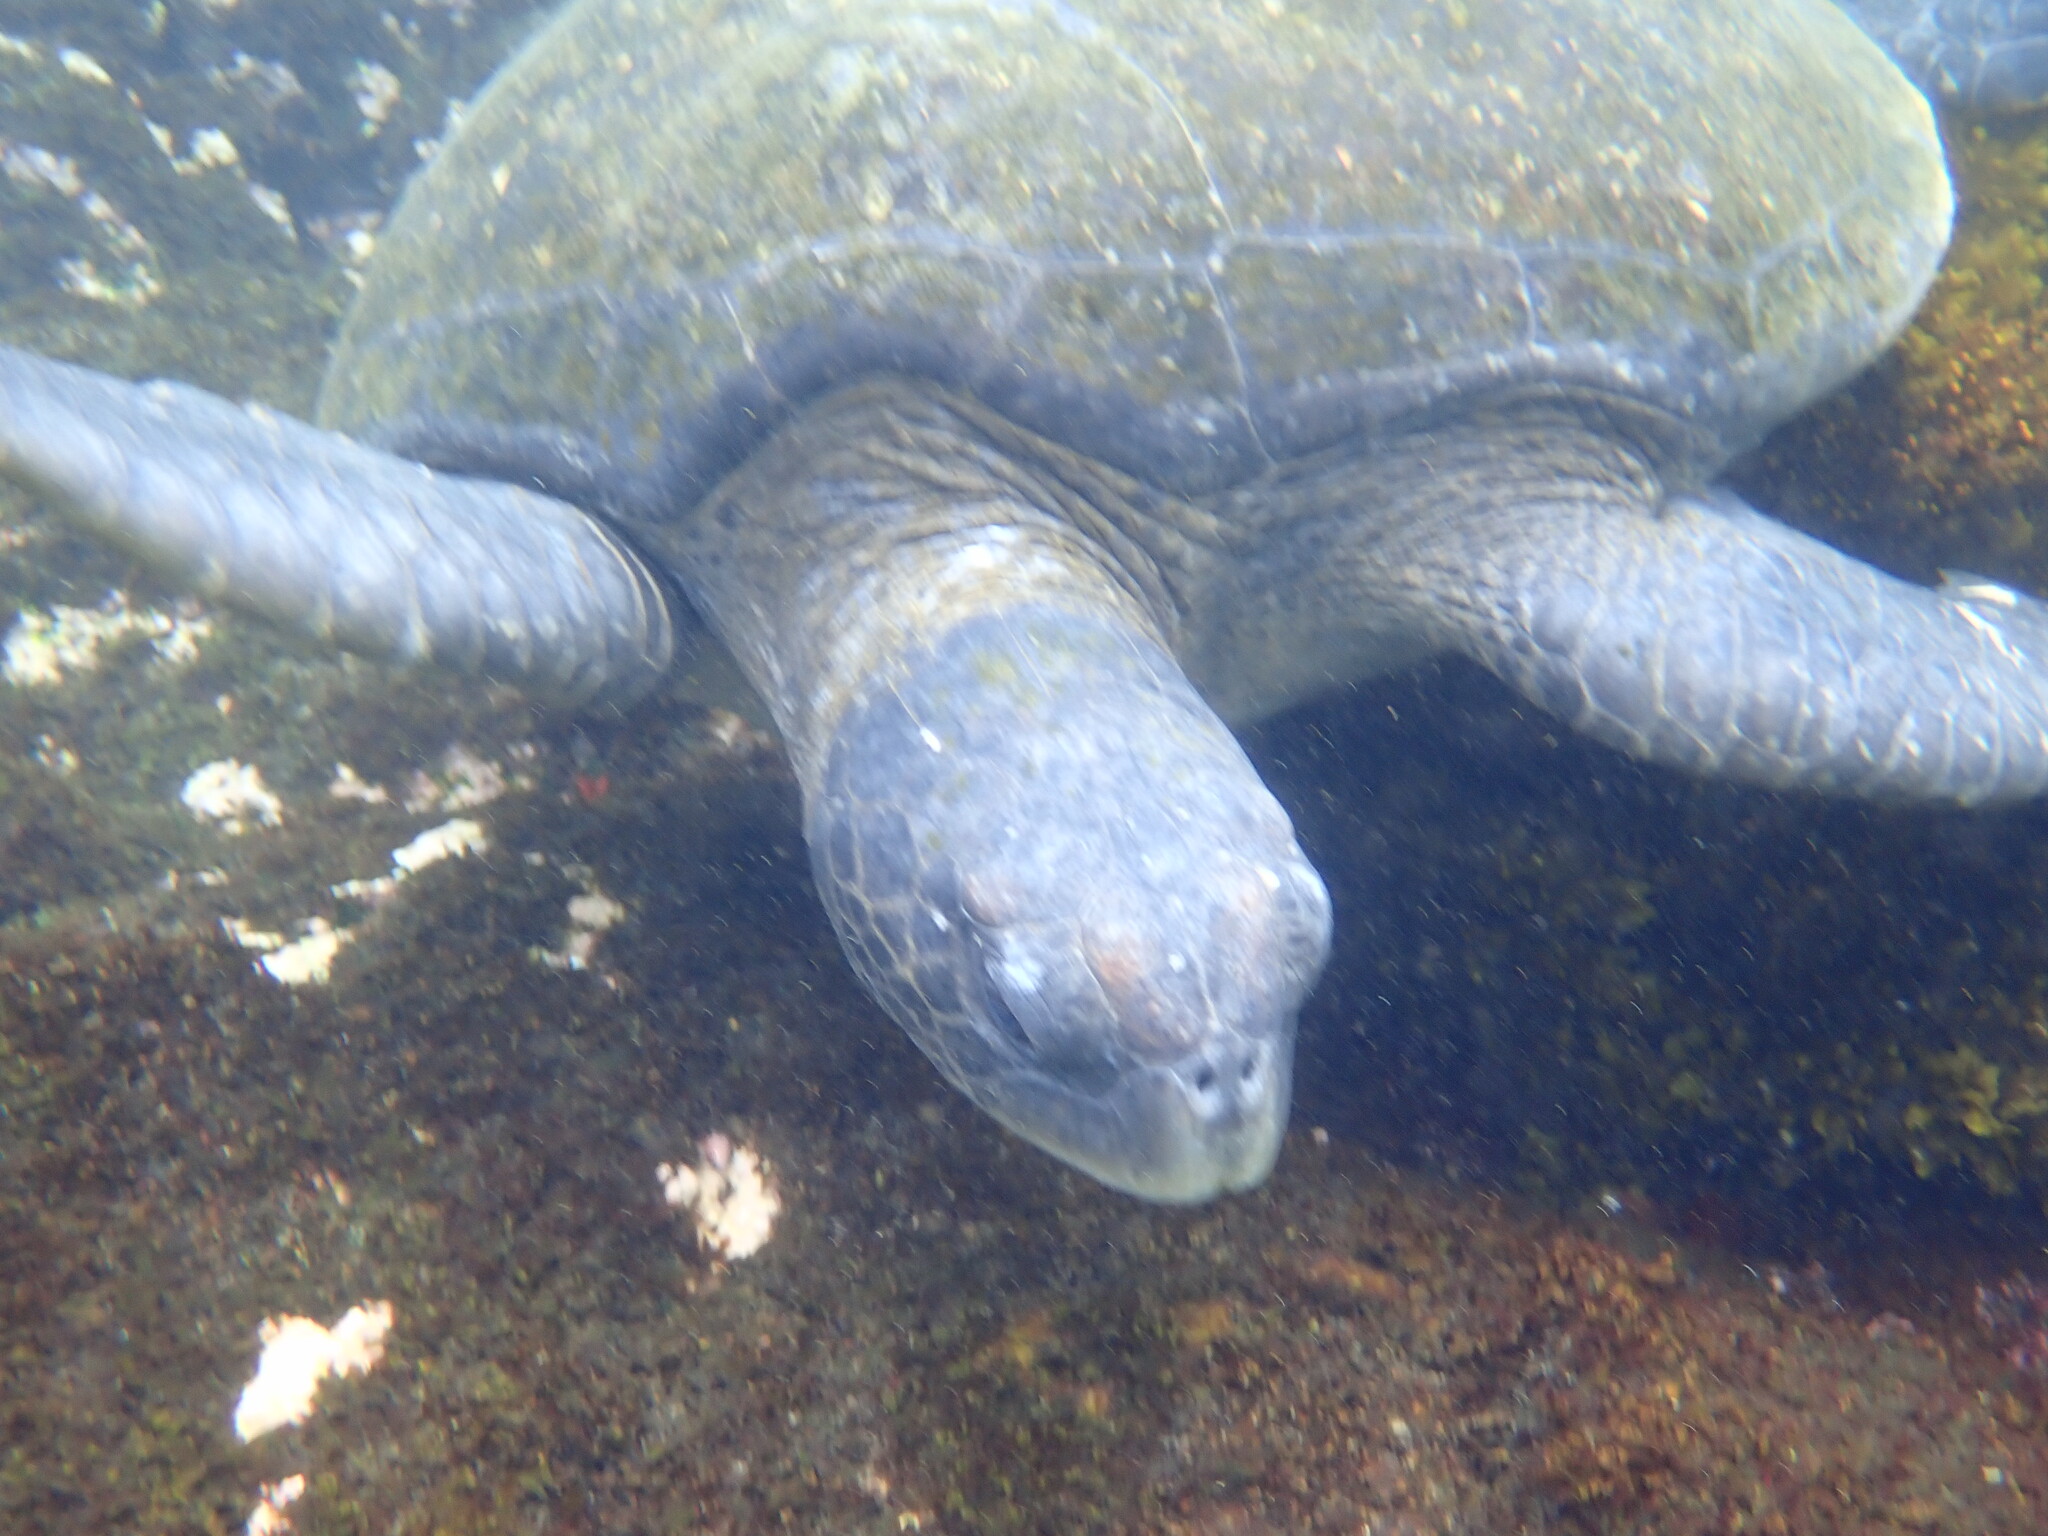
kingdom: Animalia
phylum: Chordata
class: Testudines
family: Cheloniidae
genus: Chelonia
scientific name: Chelonia mydas
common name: Green turtle
